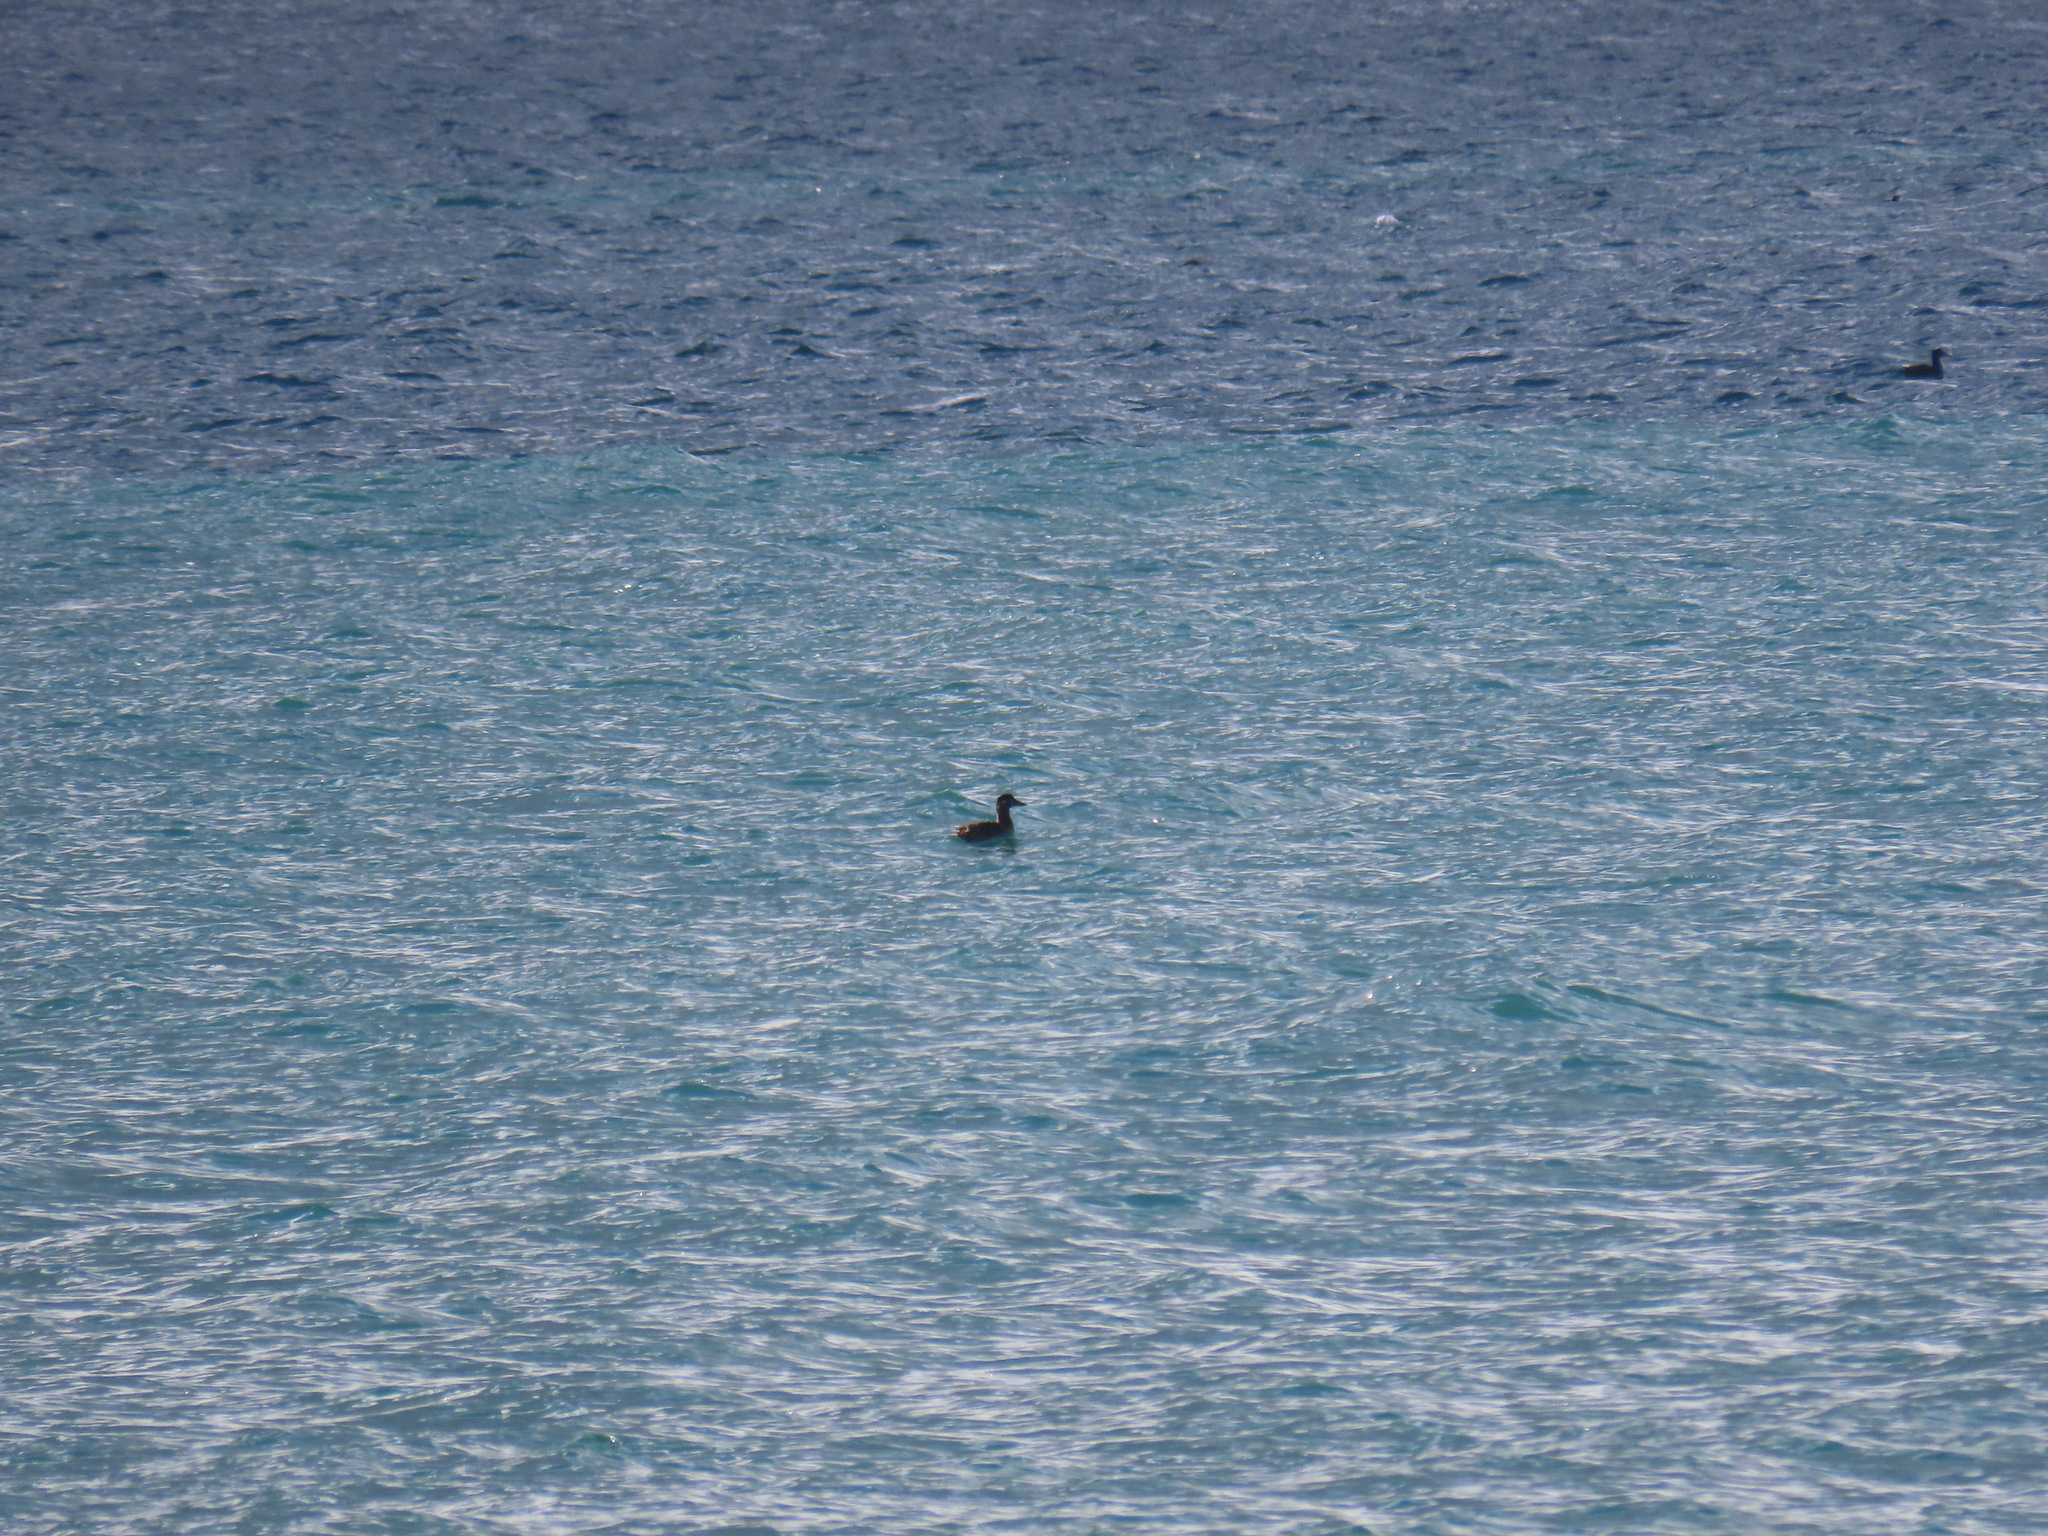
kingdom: Animalia
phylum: Chordata
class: Aves
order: Anseriformes
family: Anatidae
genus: Melanitta
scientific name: Melanitta perspicillata
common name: Surf scoter
